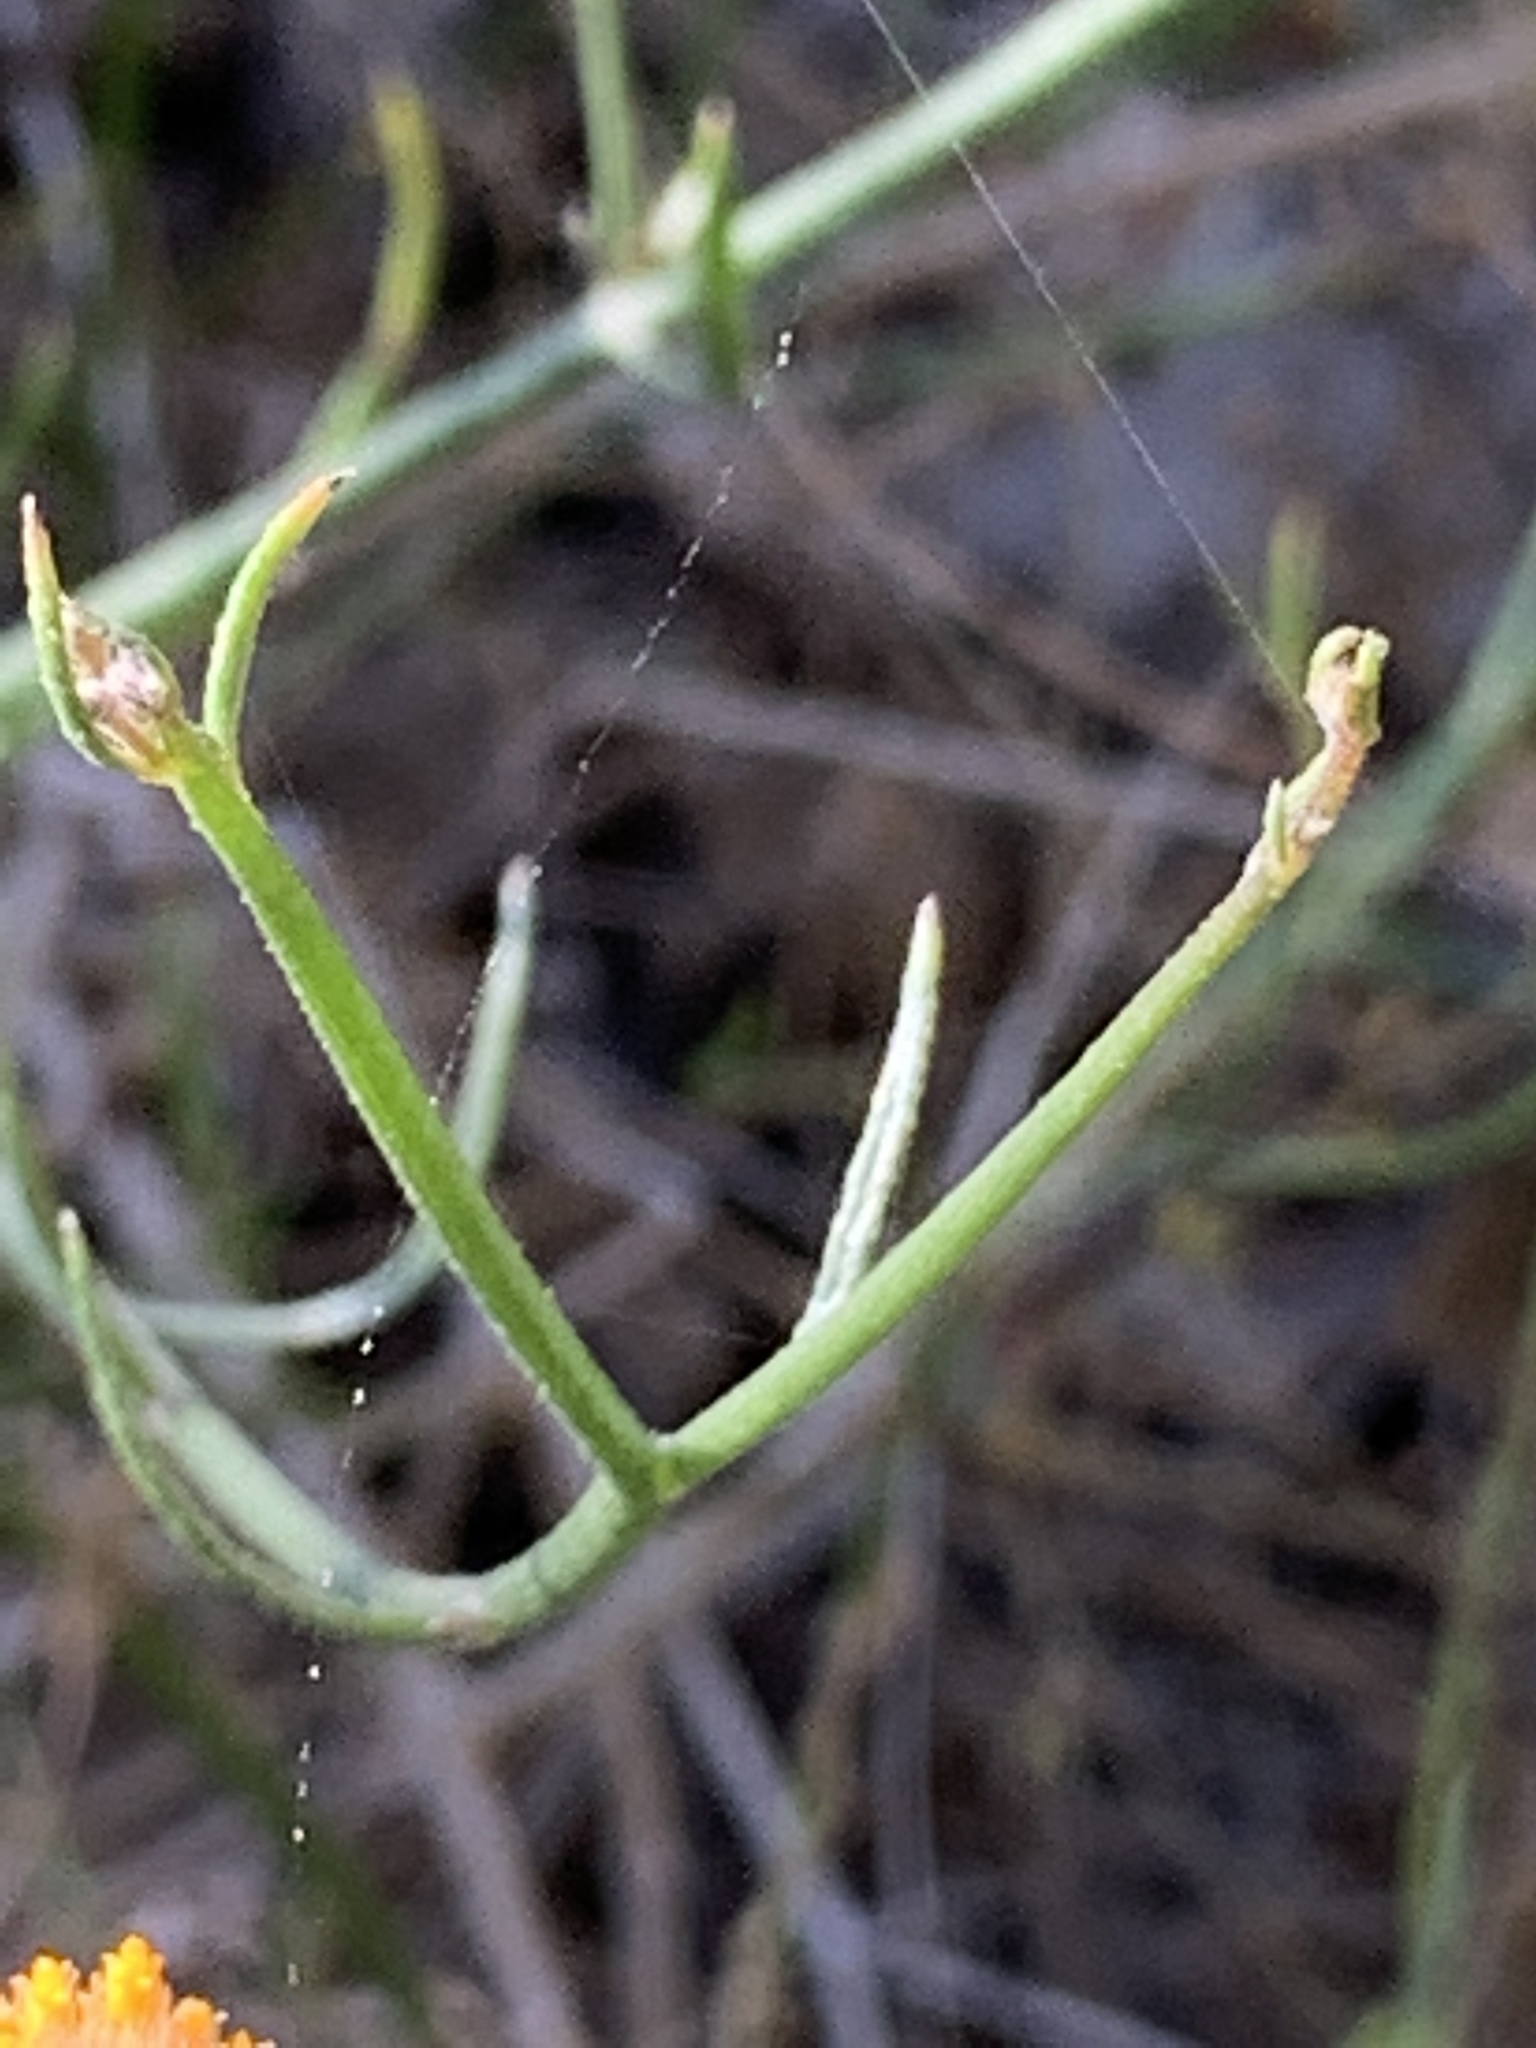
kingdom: Plantae
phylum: Tracheophyta
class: Magnoliopsida
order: Asterales
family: Asteraceae
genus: Bebbia
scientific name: Bebbia juncea
